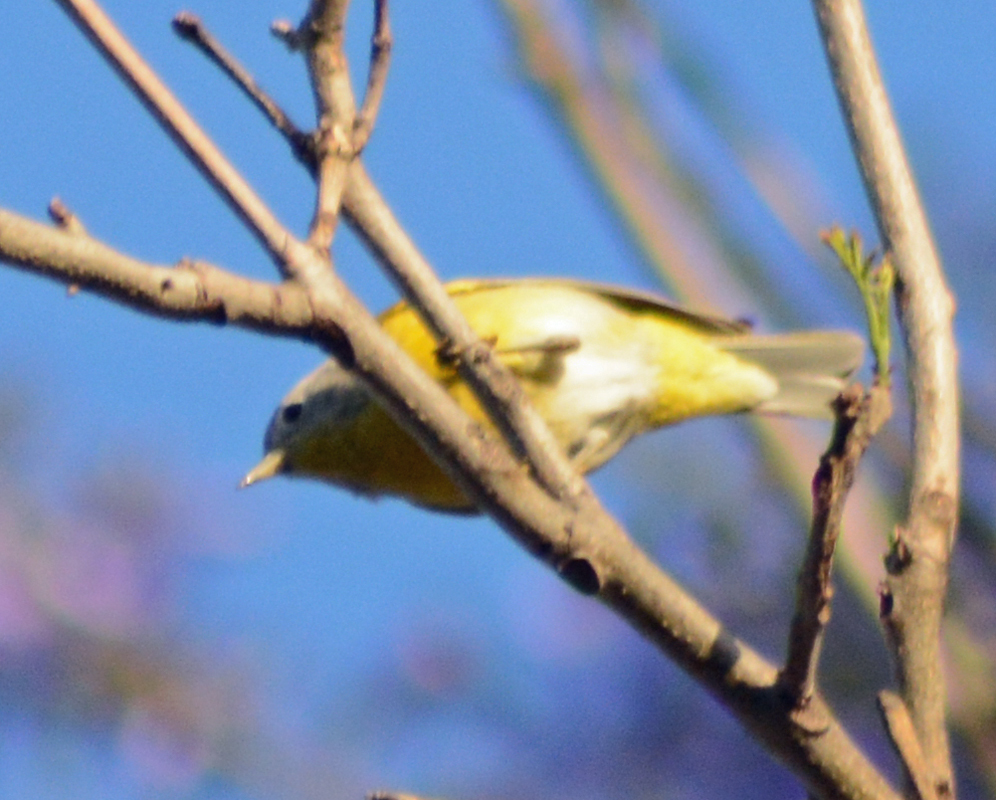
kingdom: Animalia
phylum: Chordata
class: Aves
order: Passeriformes
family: Parulidae
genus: Leiothlypis
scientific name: Leiothlypis ruficapilla
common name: Nashville warbler
